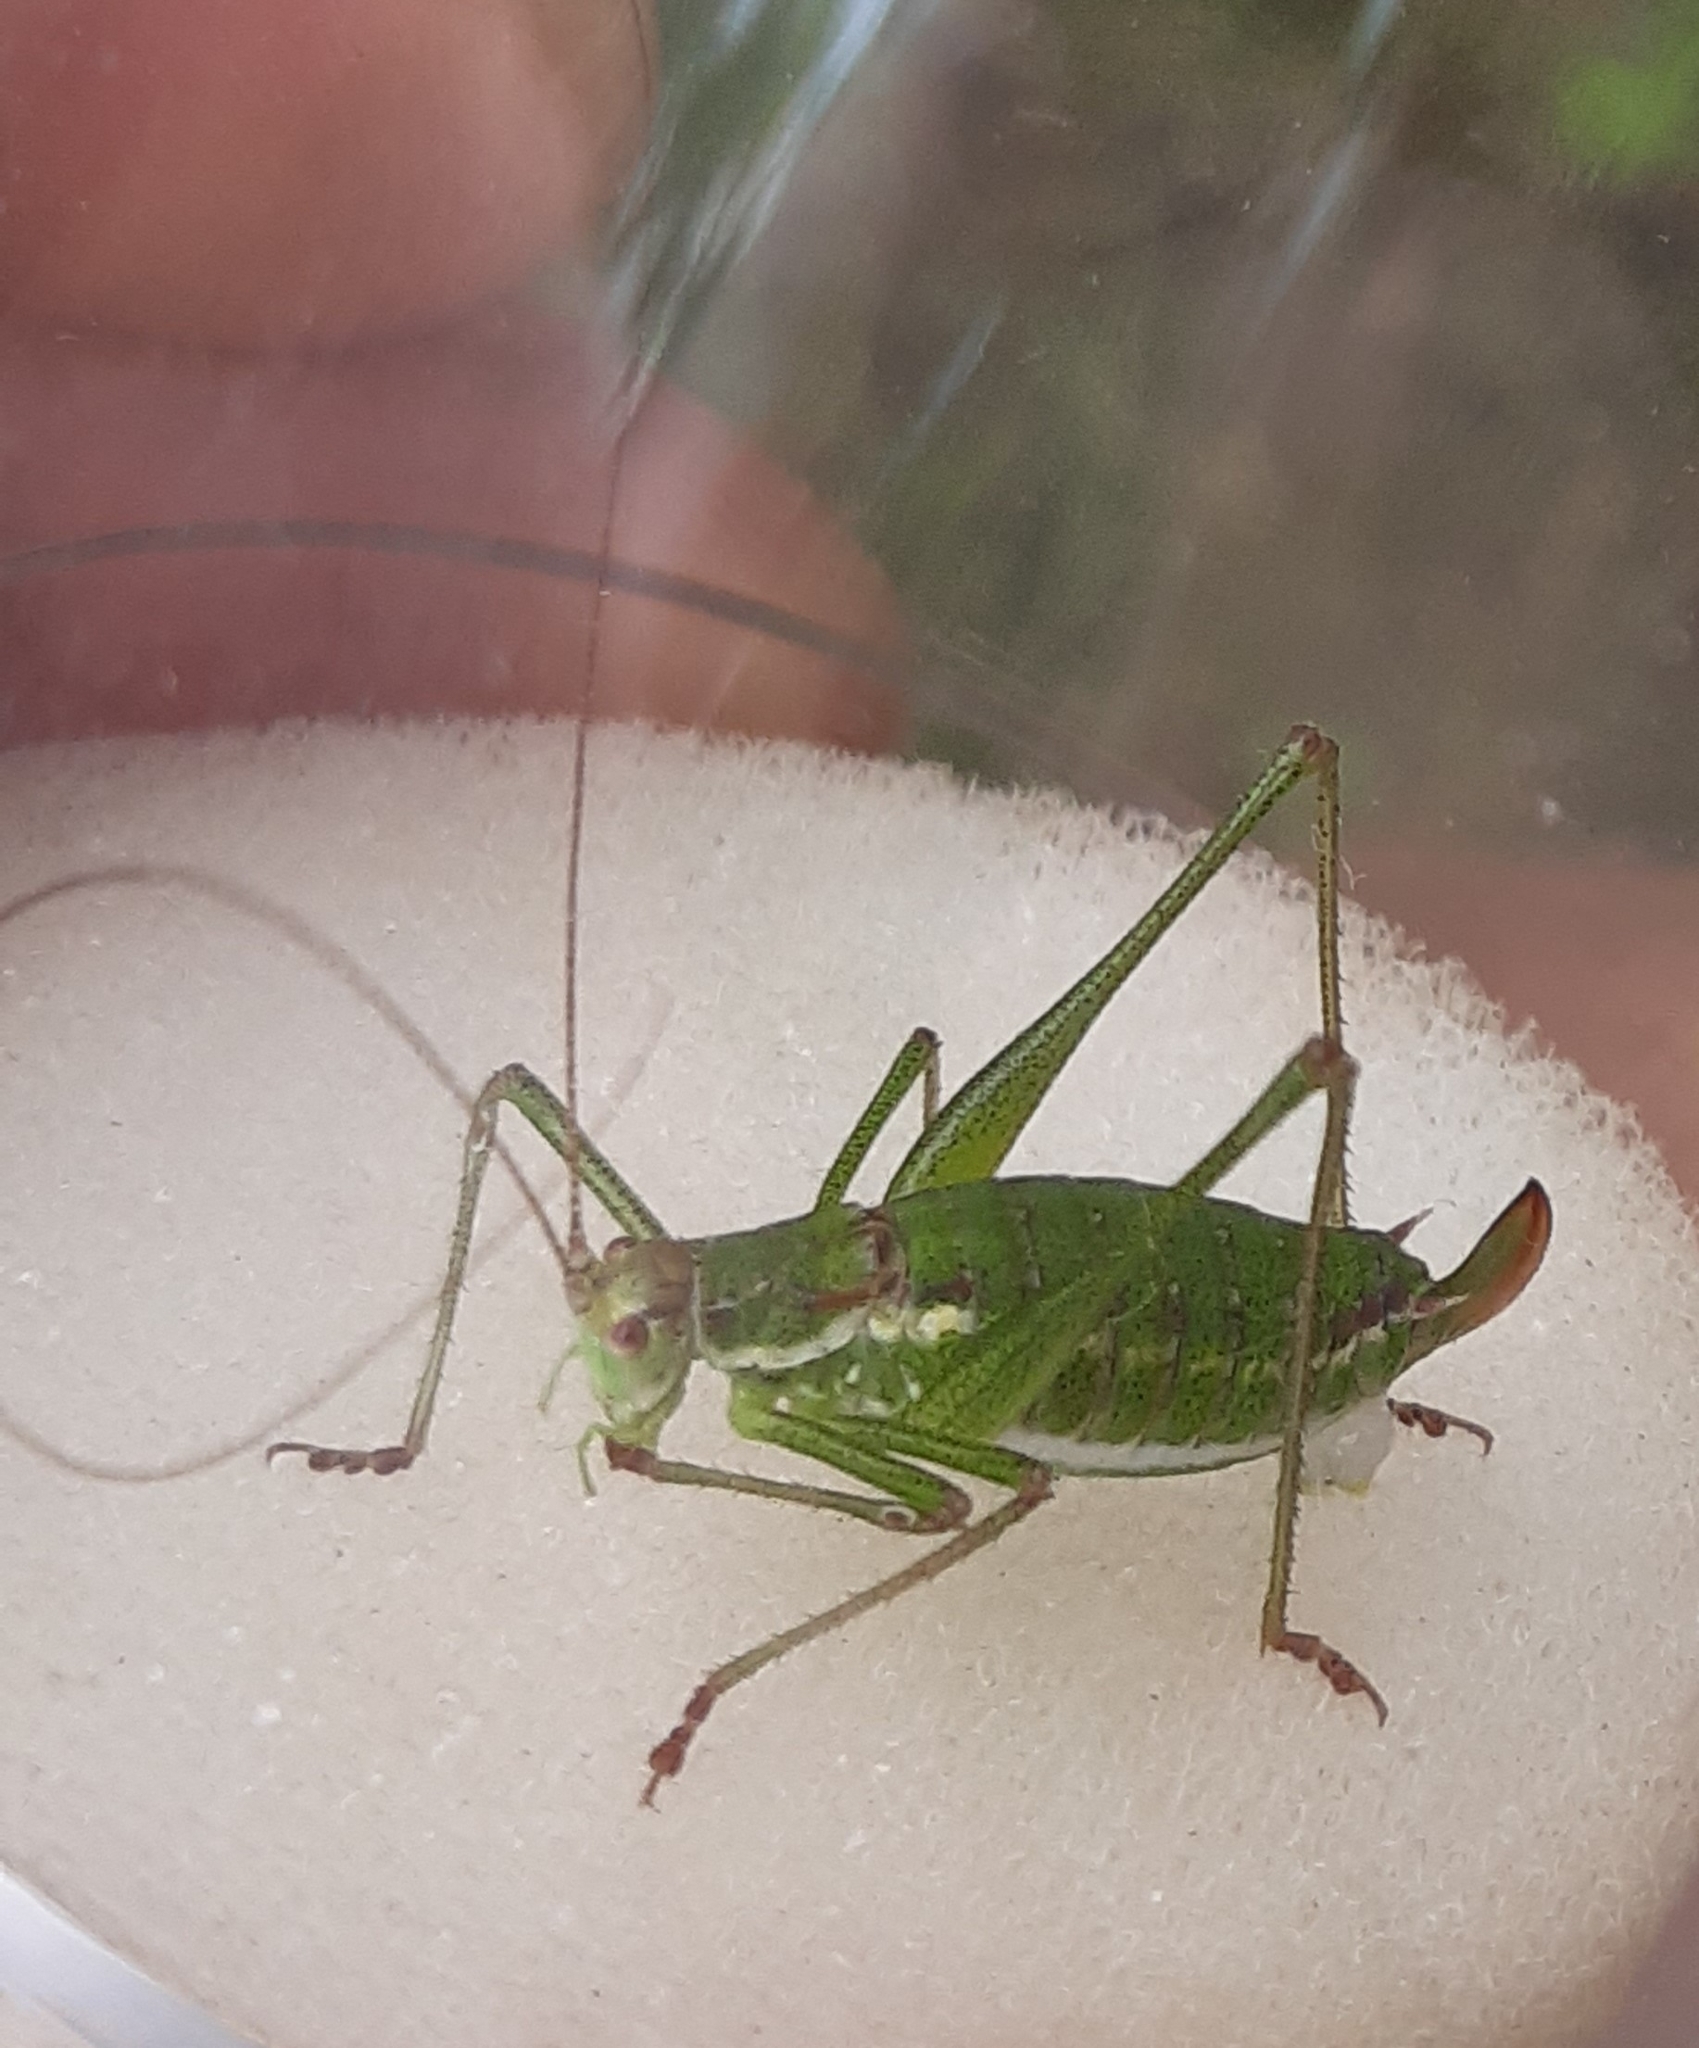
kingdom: Animalia
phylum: Arthropoda
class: Insecta
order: Orthoptera
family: Tettigoniidae
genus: Leptophyes
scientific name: Leptophyes albovittata
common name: Striped bush-cricket
